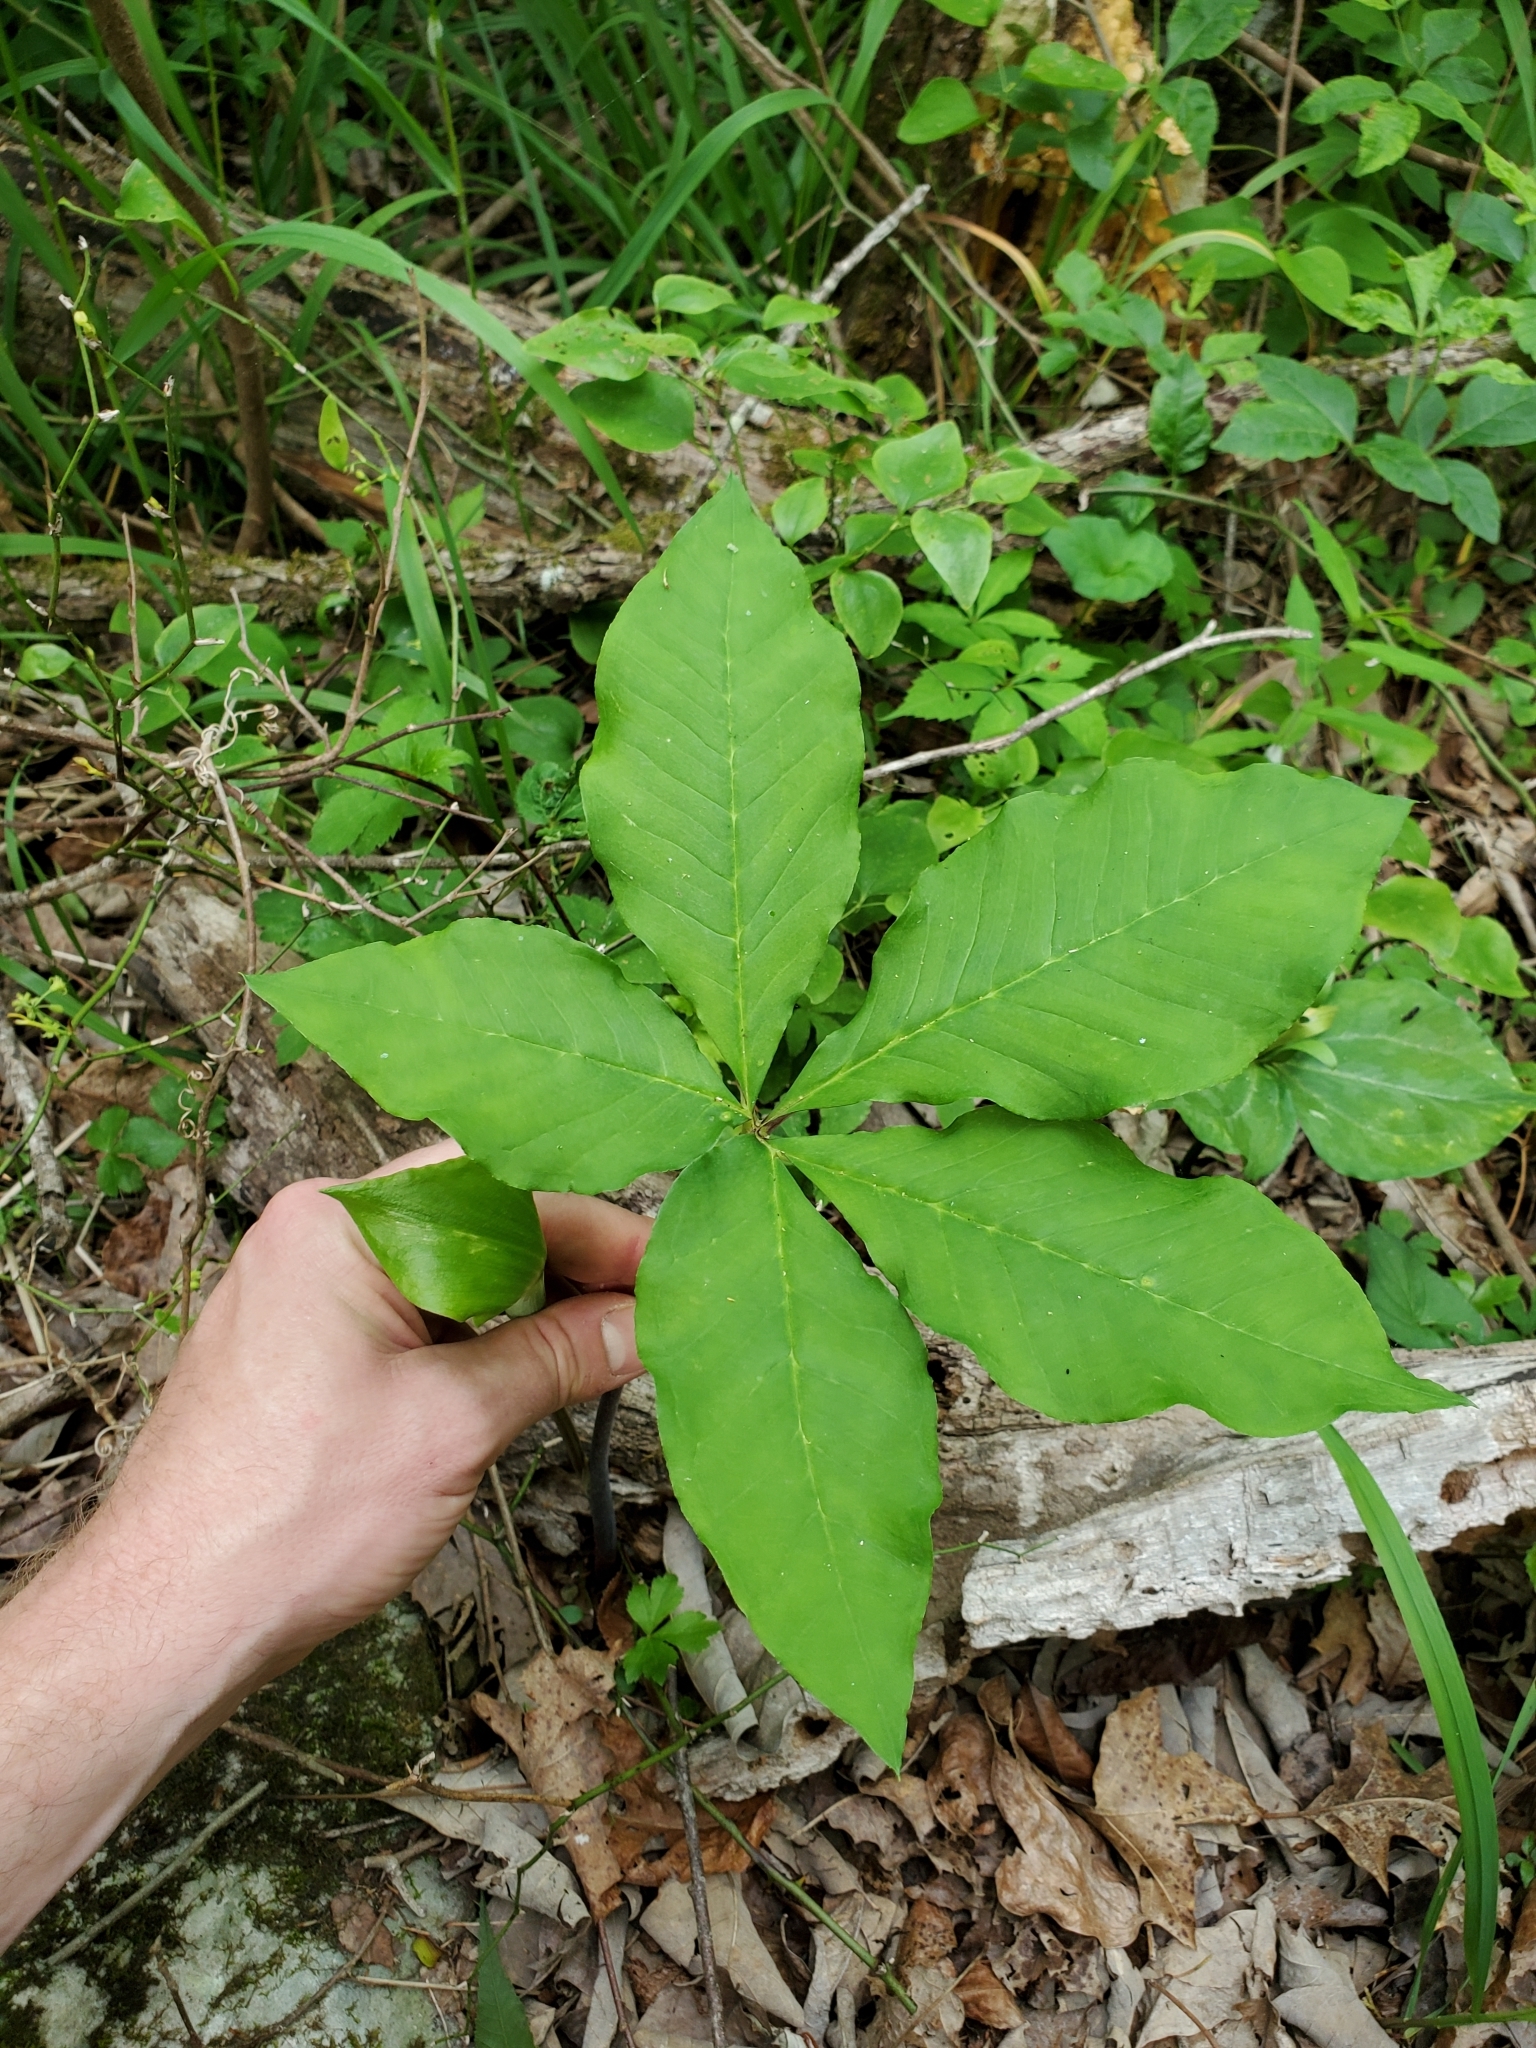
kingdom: Plantae
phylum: Tracheophyta
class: Liliopsida
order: Alismatales
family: Araceae
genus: Arisaema
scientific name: Arisaema quinatum
